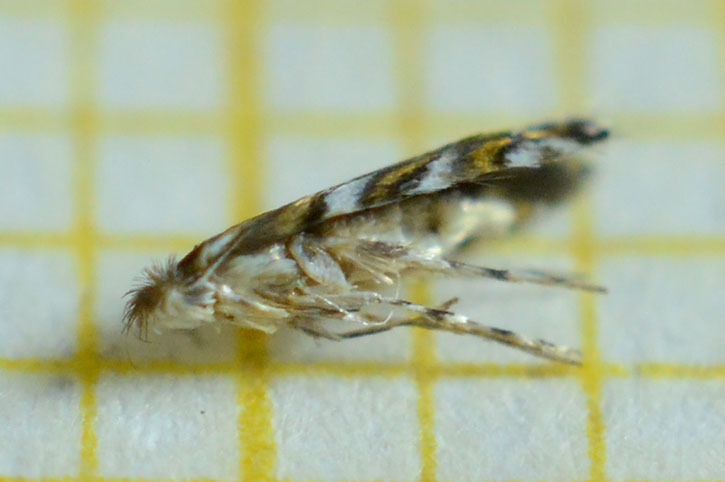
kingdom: Animalia
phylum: Arthropoda
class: Insecta
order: Lepidoptera
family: Gracillariidae
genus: Macrosaccus
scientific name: Macrosaccus robiniella
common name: Leaf blotch miner moth
